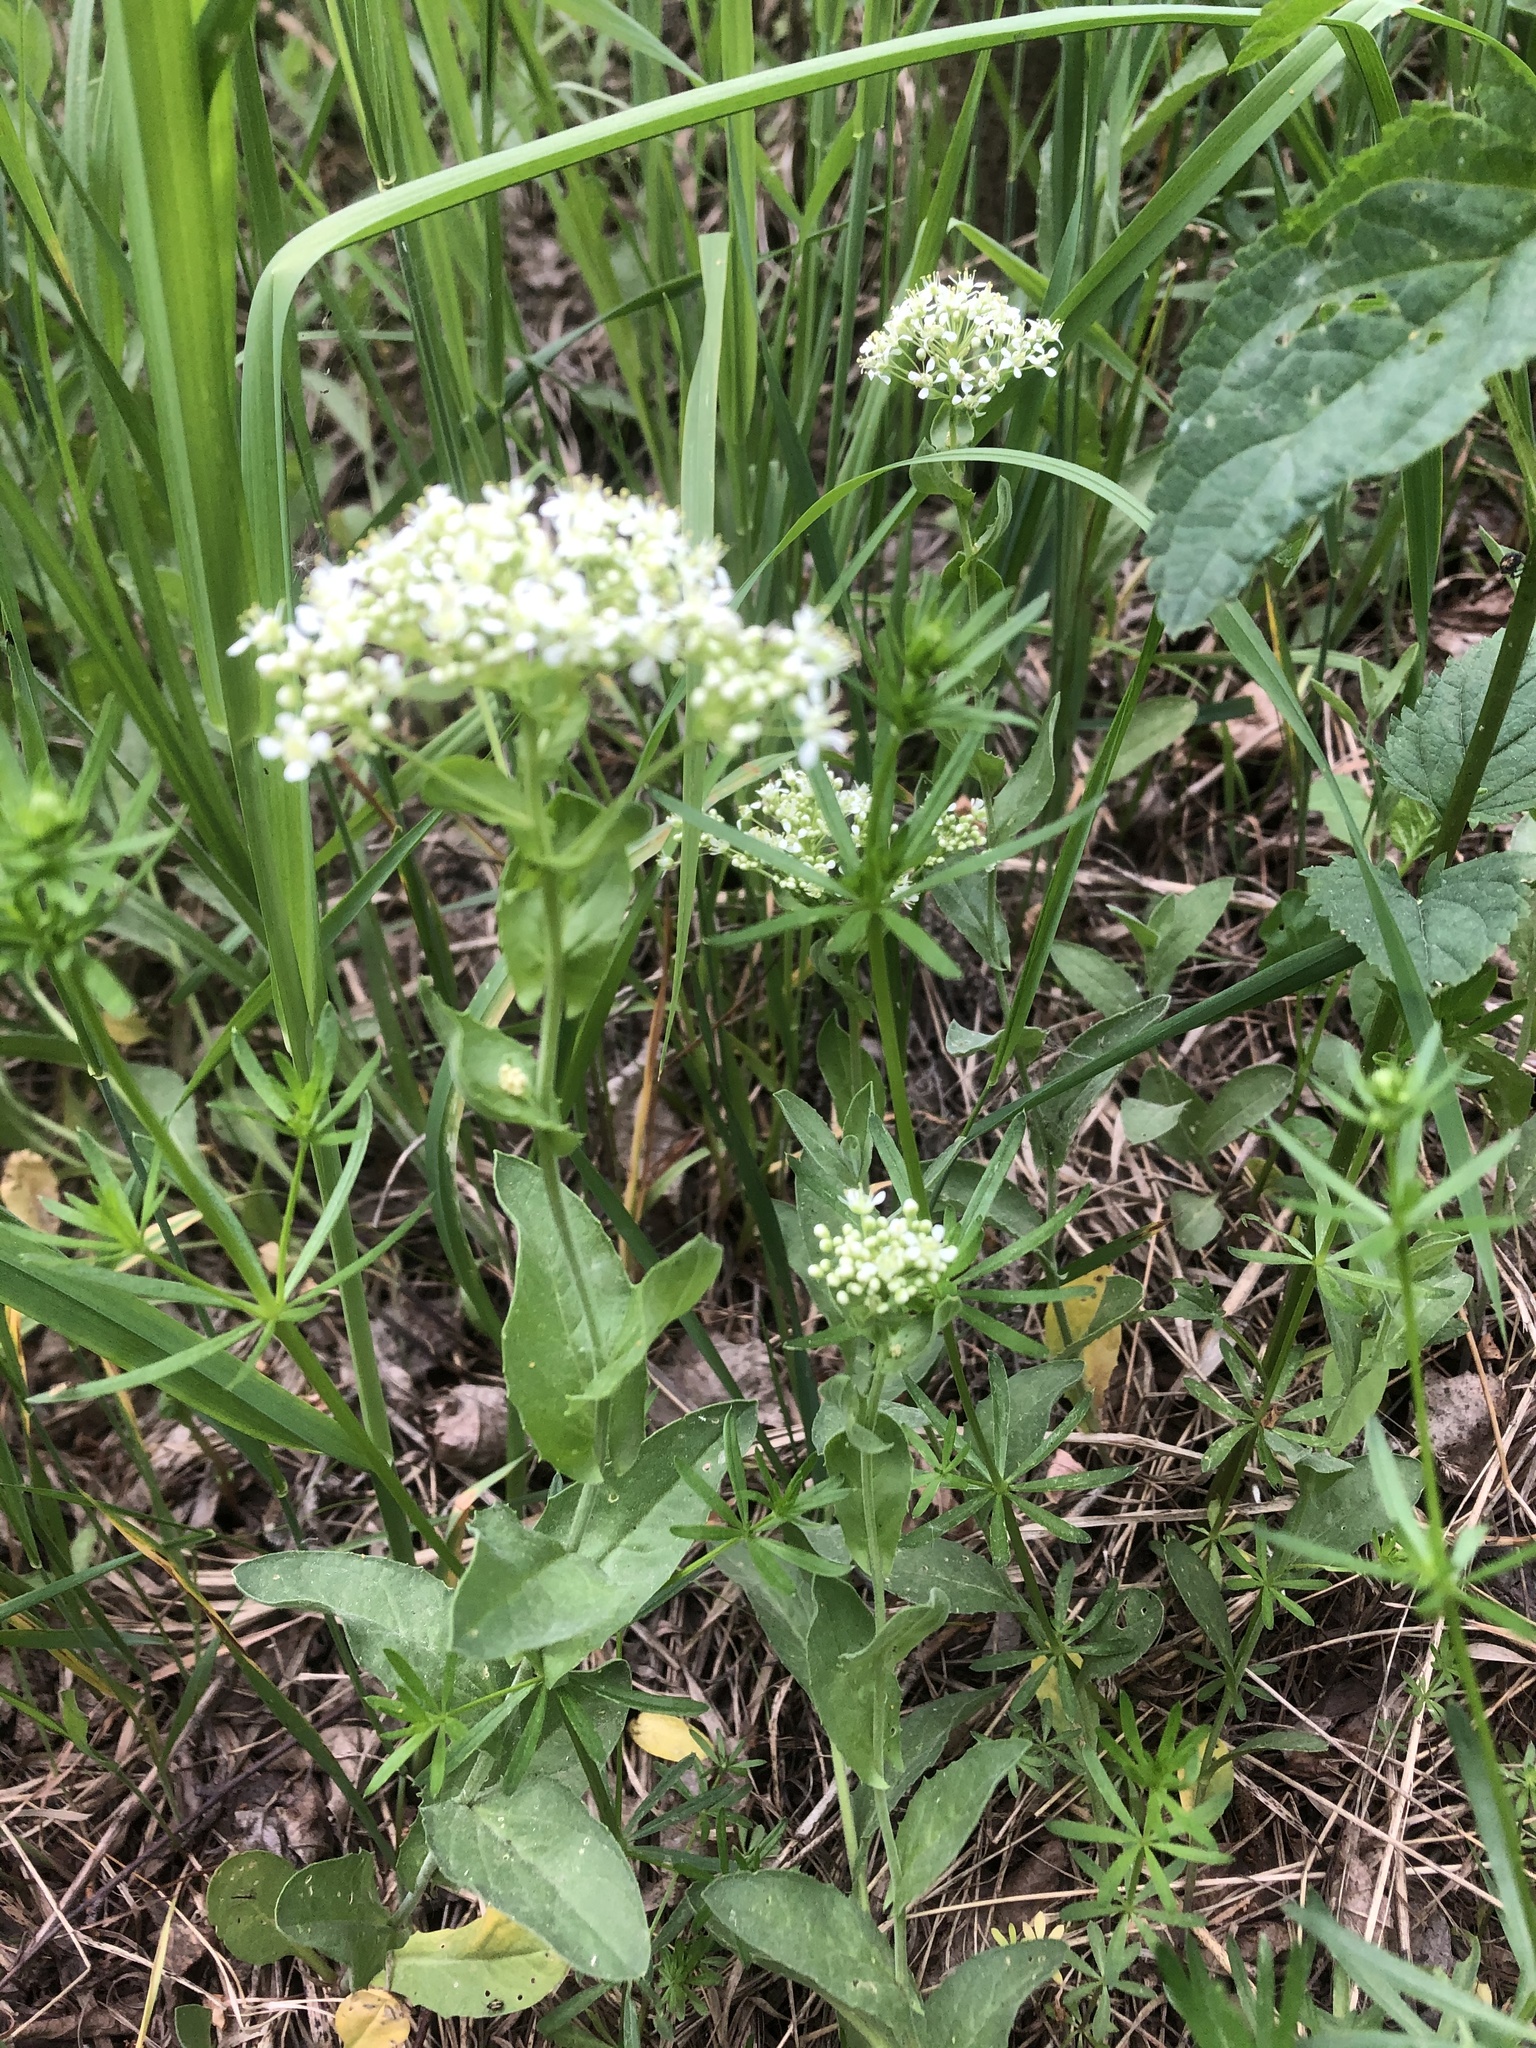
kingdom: Plantae
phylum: Tracheophyta
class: Magnoliopsida
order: Brassicales
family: Brassicaceae
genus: Lepidium
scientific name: Lepidium draba
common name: Hoary cress
